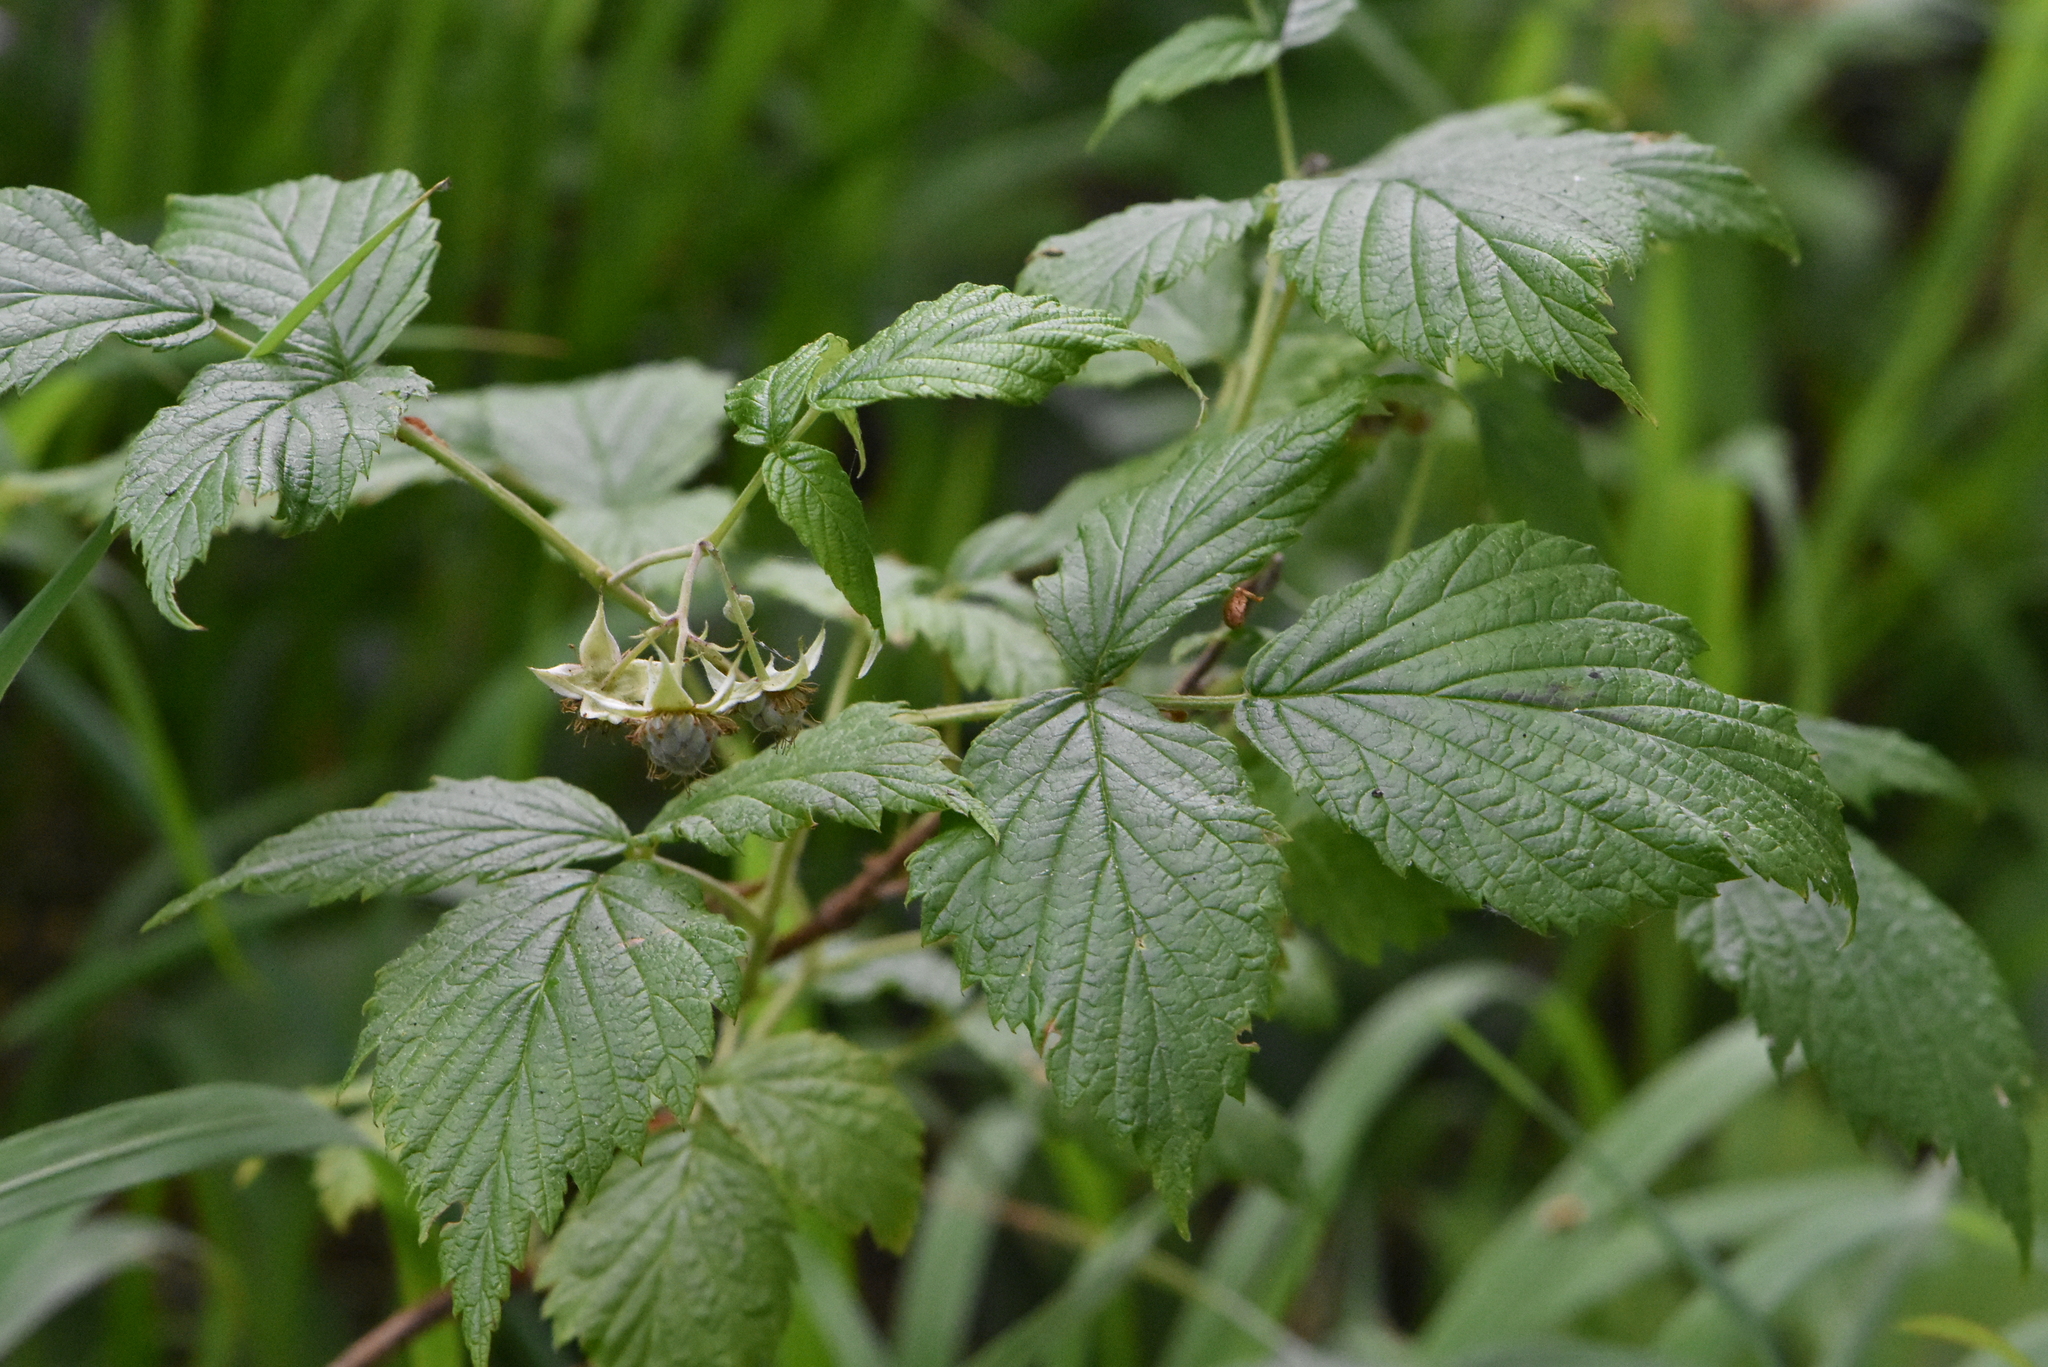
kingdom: Plantae
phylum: Tracheophyta
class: Magnoliopsida
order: Rosales
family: Rosaceae
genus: Rubus
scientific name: Rubus idaeus
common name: Raspberry
